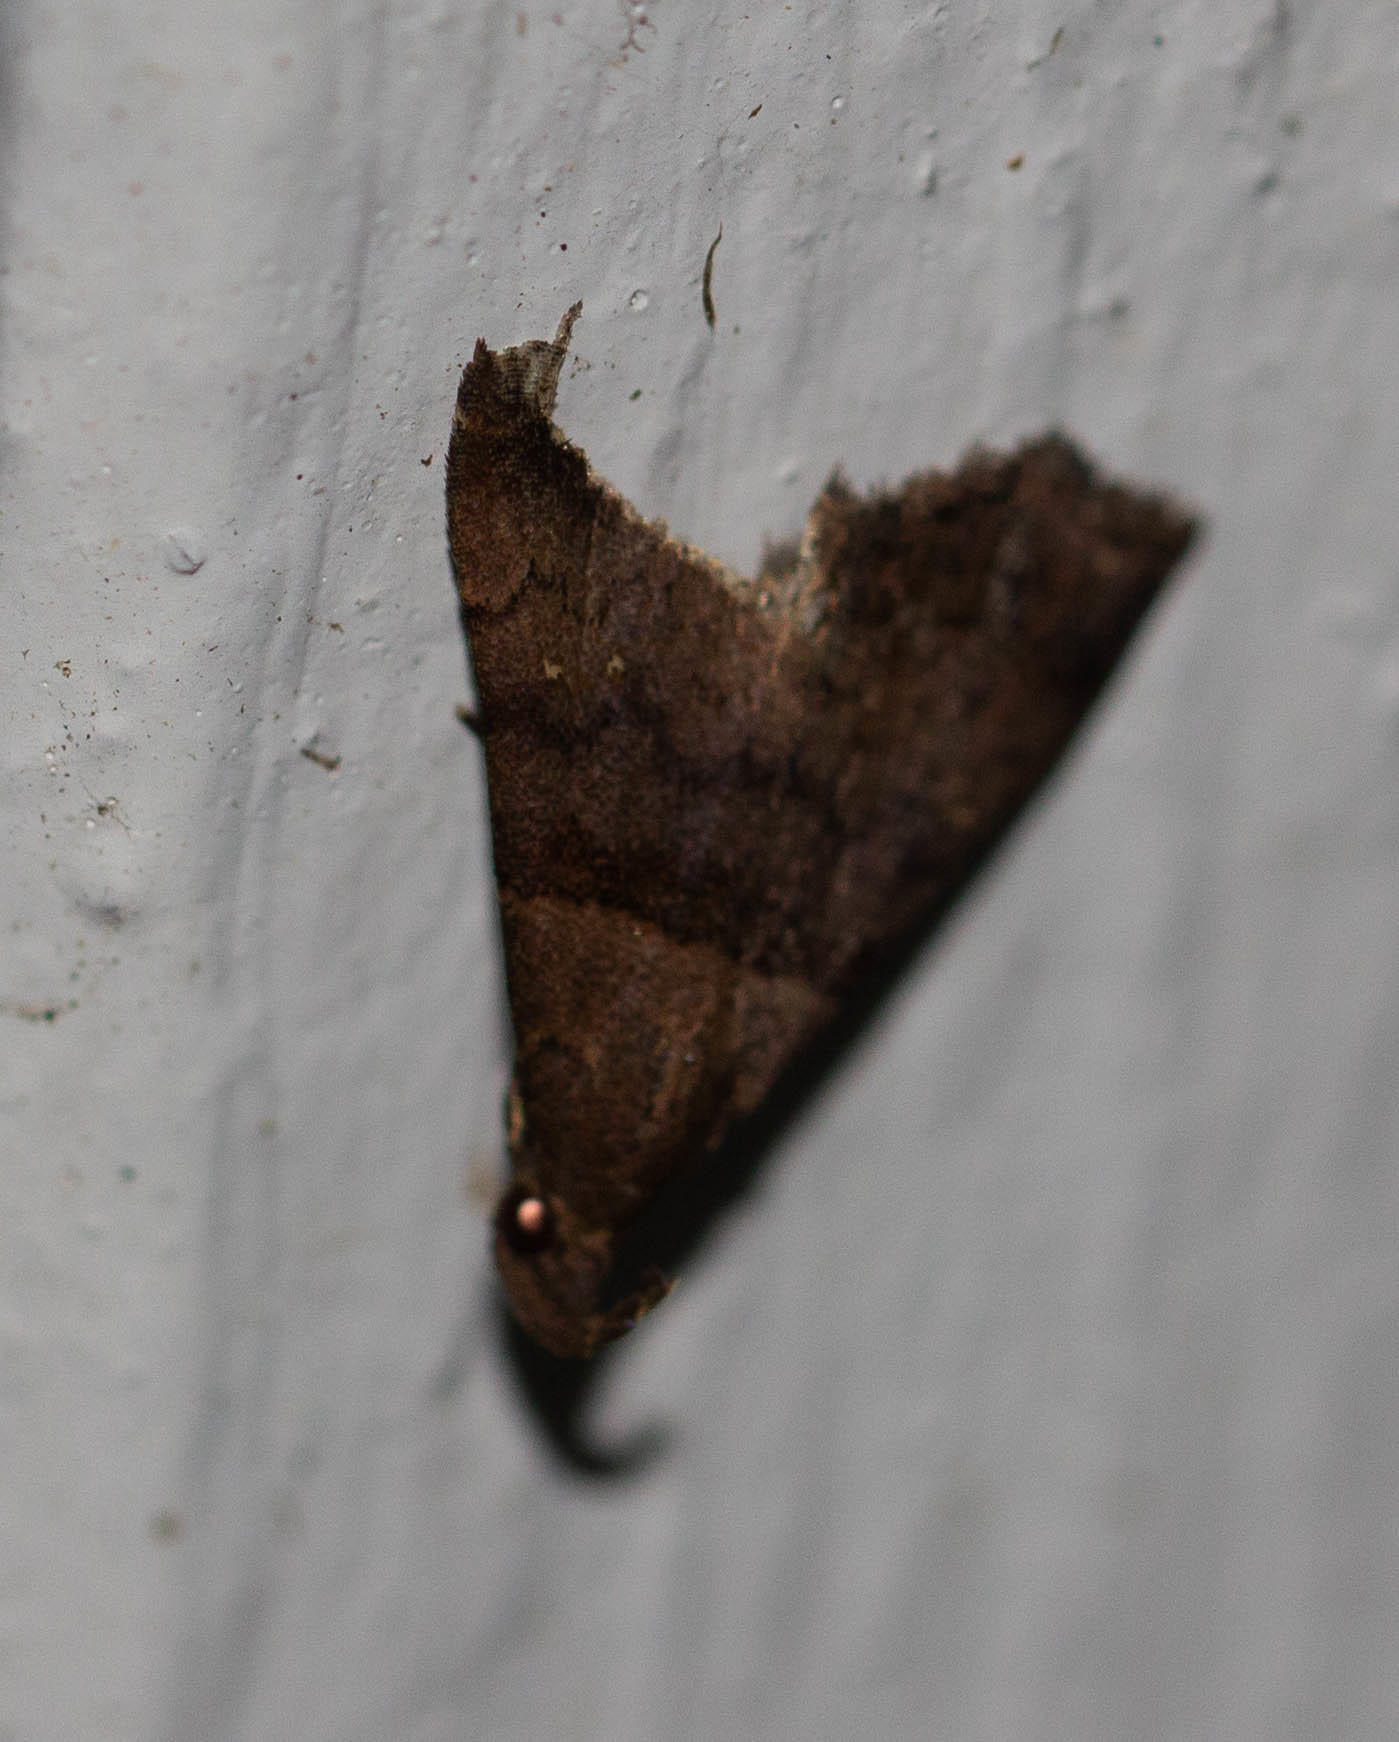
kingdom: Animalia
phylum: Arthropoda
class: Insecta
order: Lepidoptera
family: Erebidae
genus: Lascoria
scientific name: Lascoria ambigualis
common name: Ambiguous moth
